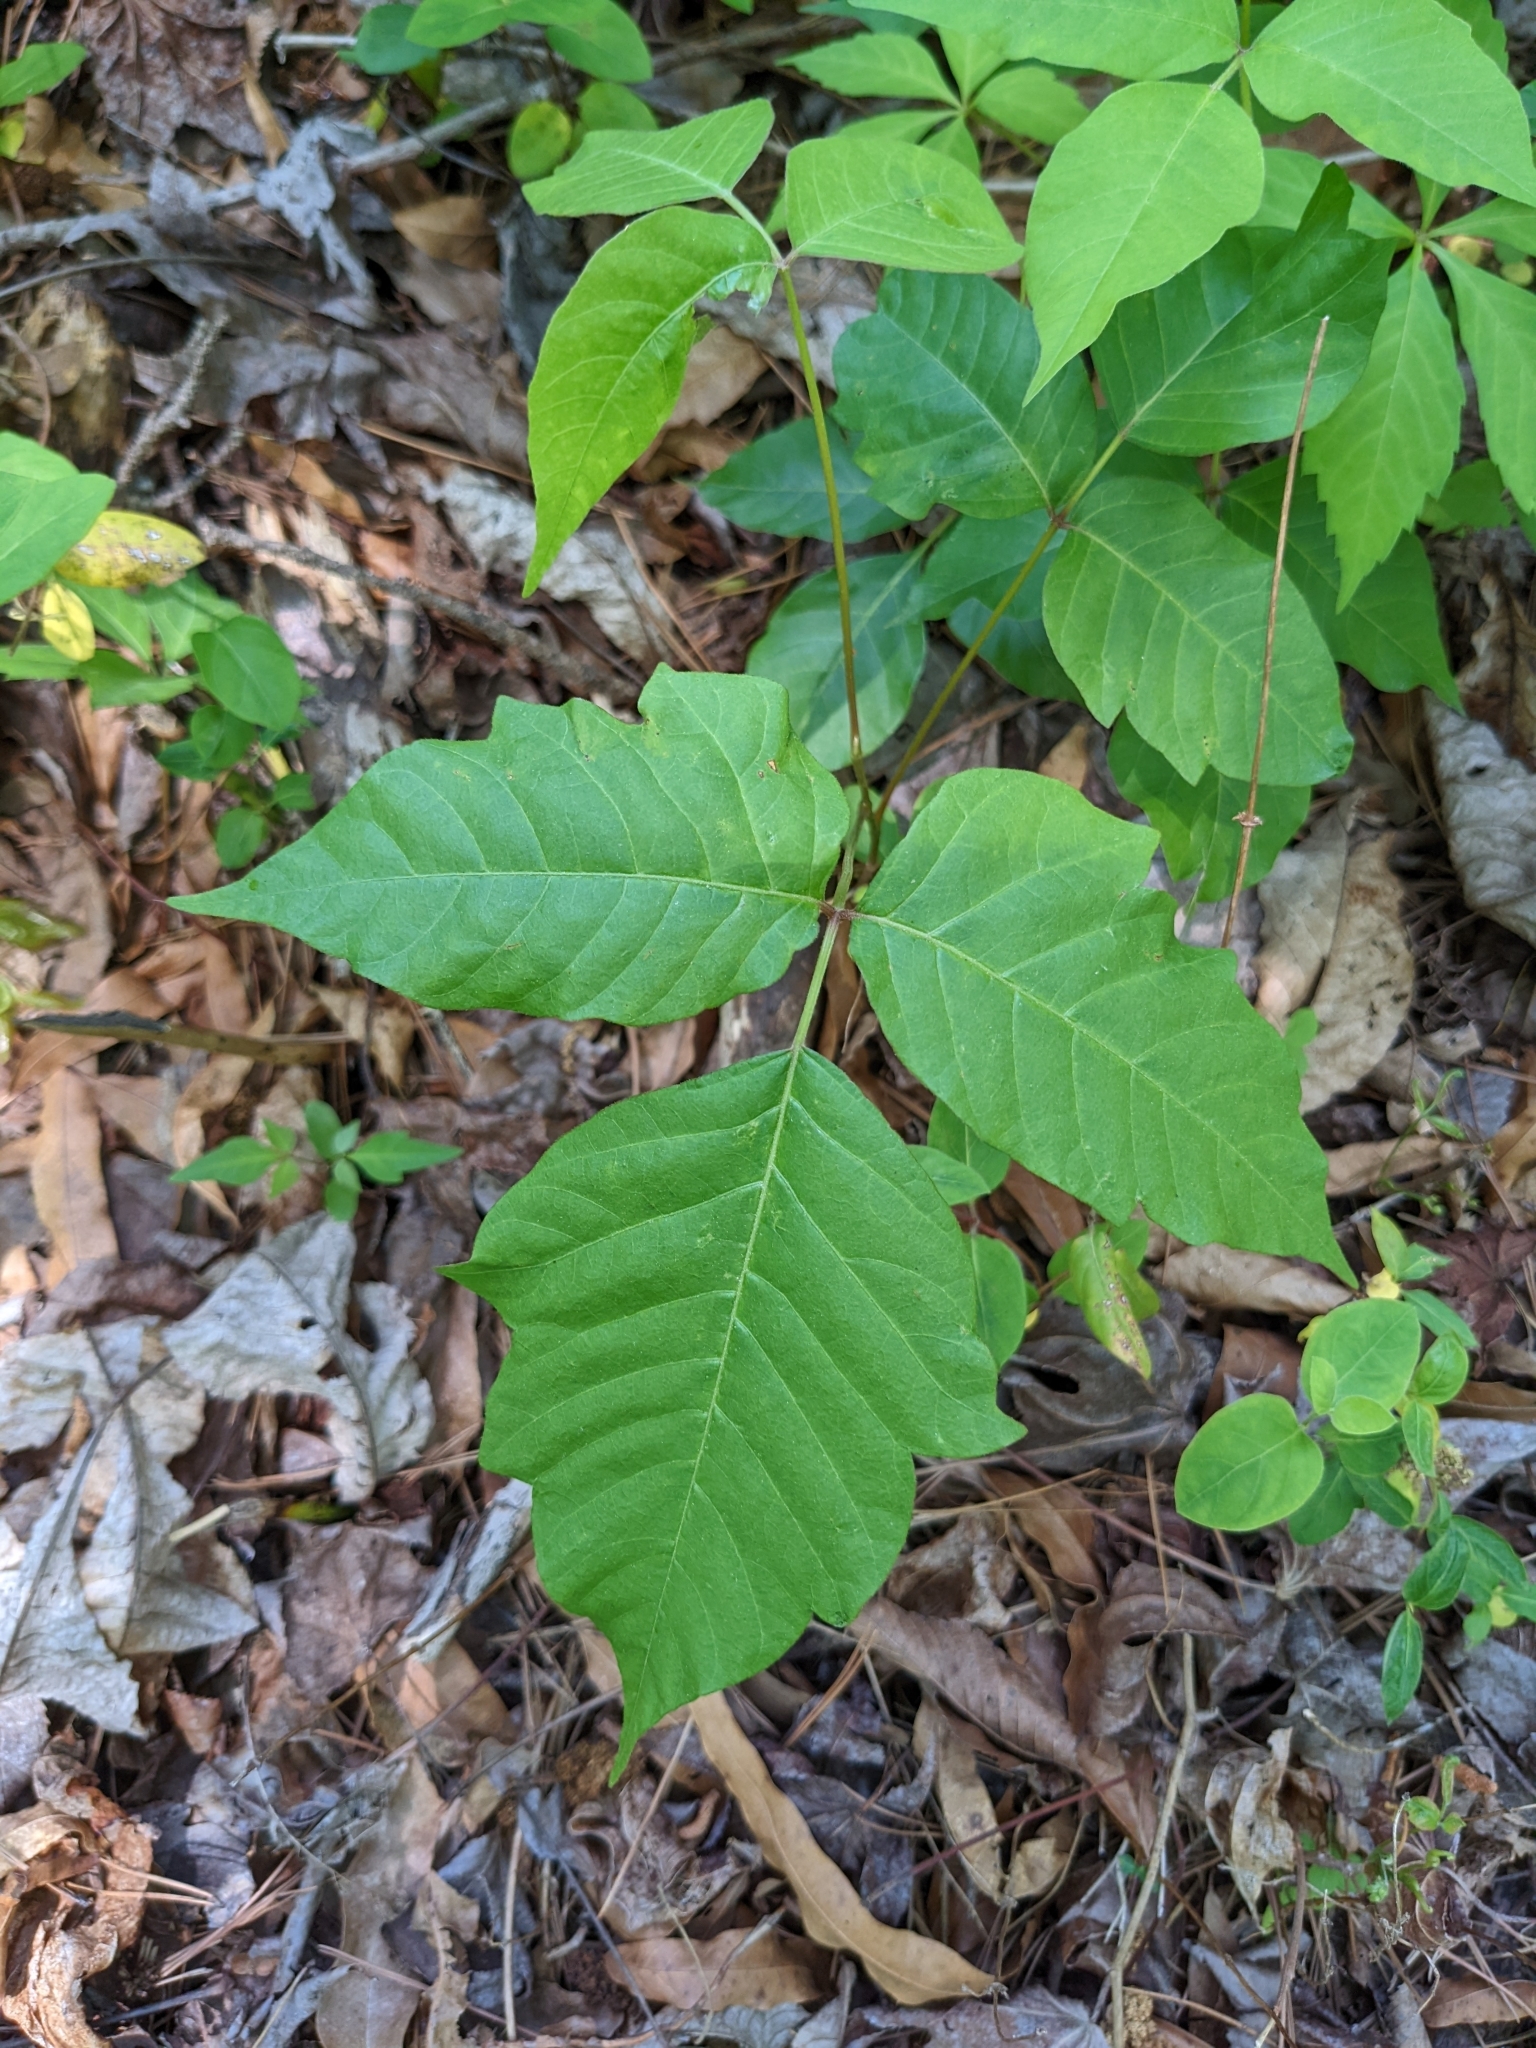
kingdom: Plantae
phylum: Tracheophyta
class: Magnoliopsida
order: Sapindales
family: Anacardiaceae
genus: Toxicodendron
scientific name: Toxicodendron radicans
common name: Poison ivy
